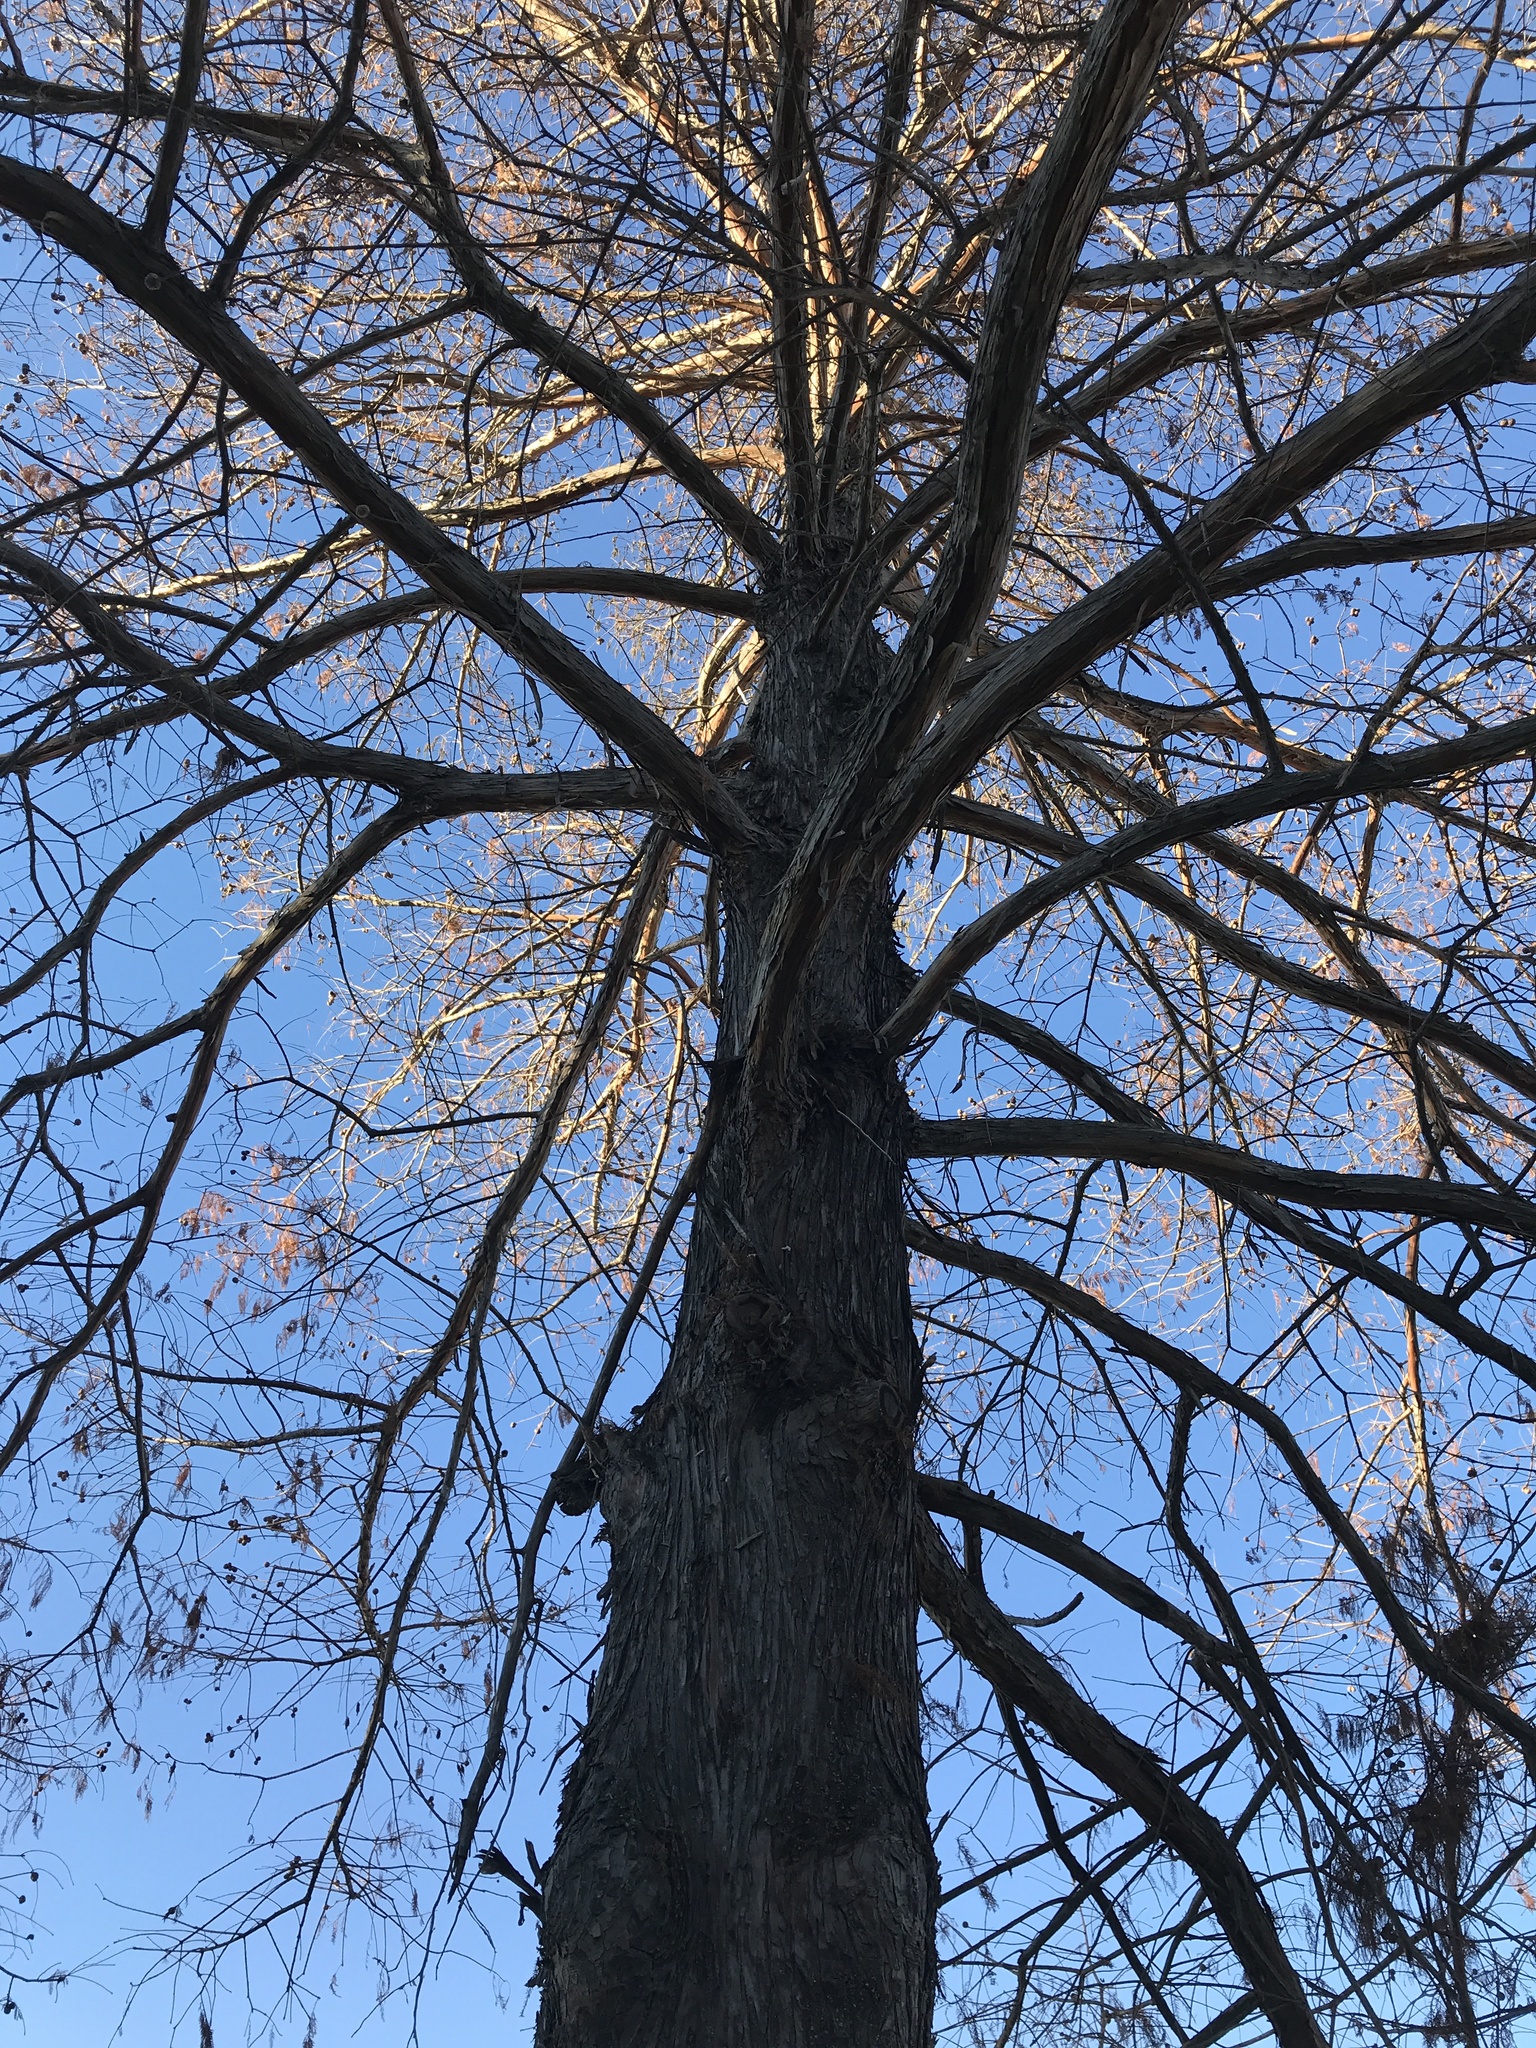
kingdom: Plantae
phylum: Tracheophyta
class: Pinopsida
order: Pinales
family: Cupressaceae
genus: Taxodium
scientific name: Taxodium distichum
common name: Bald cypress
